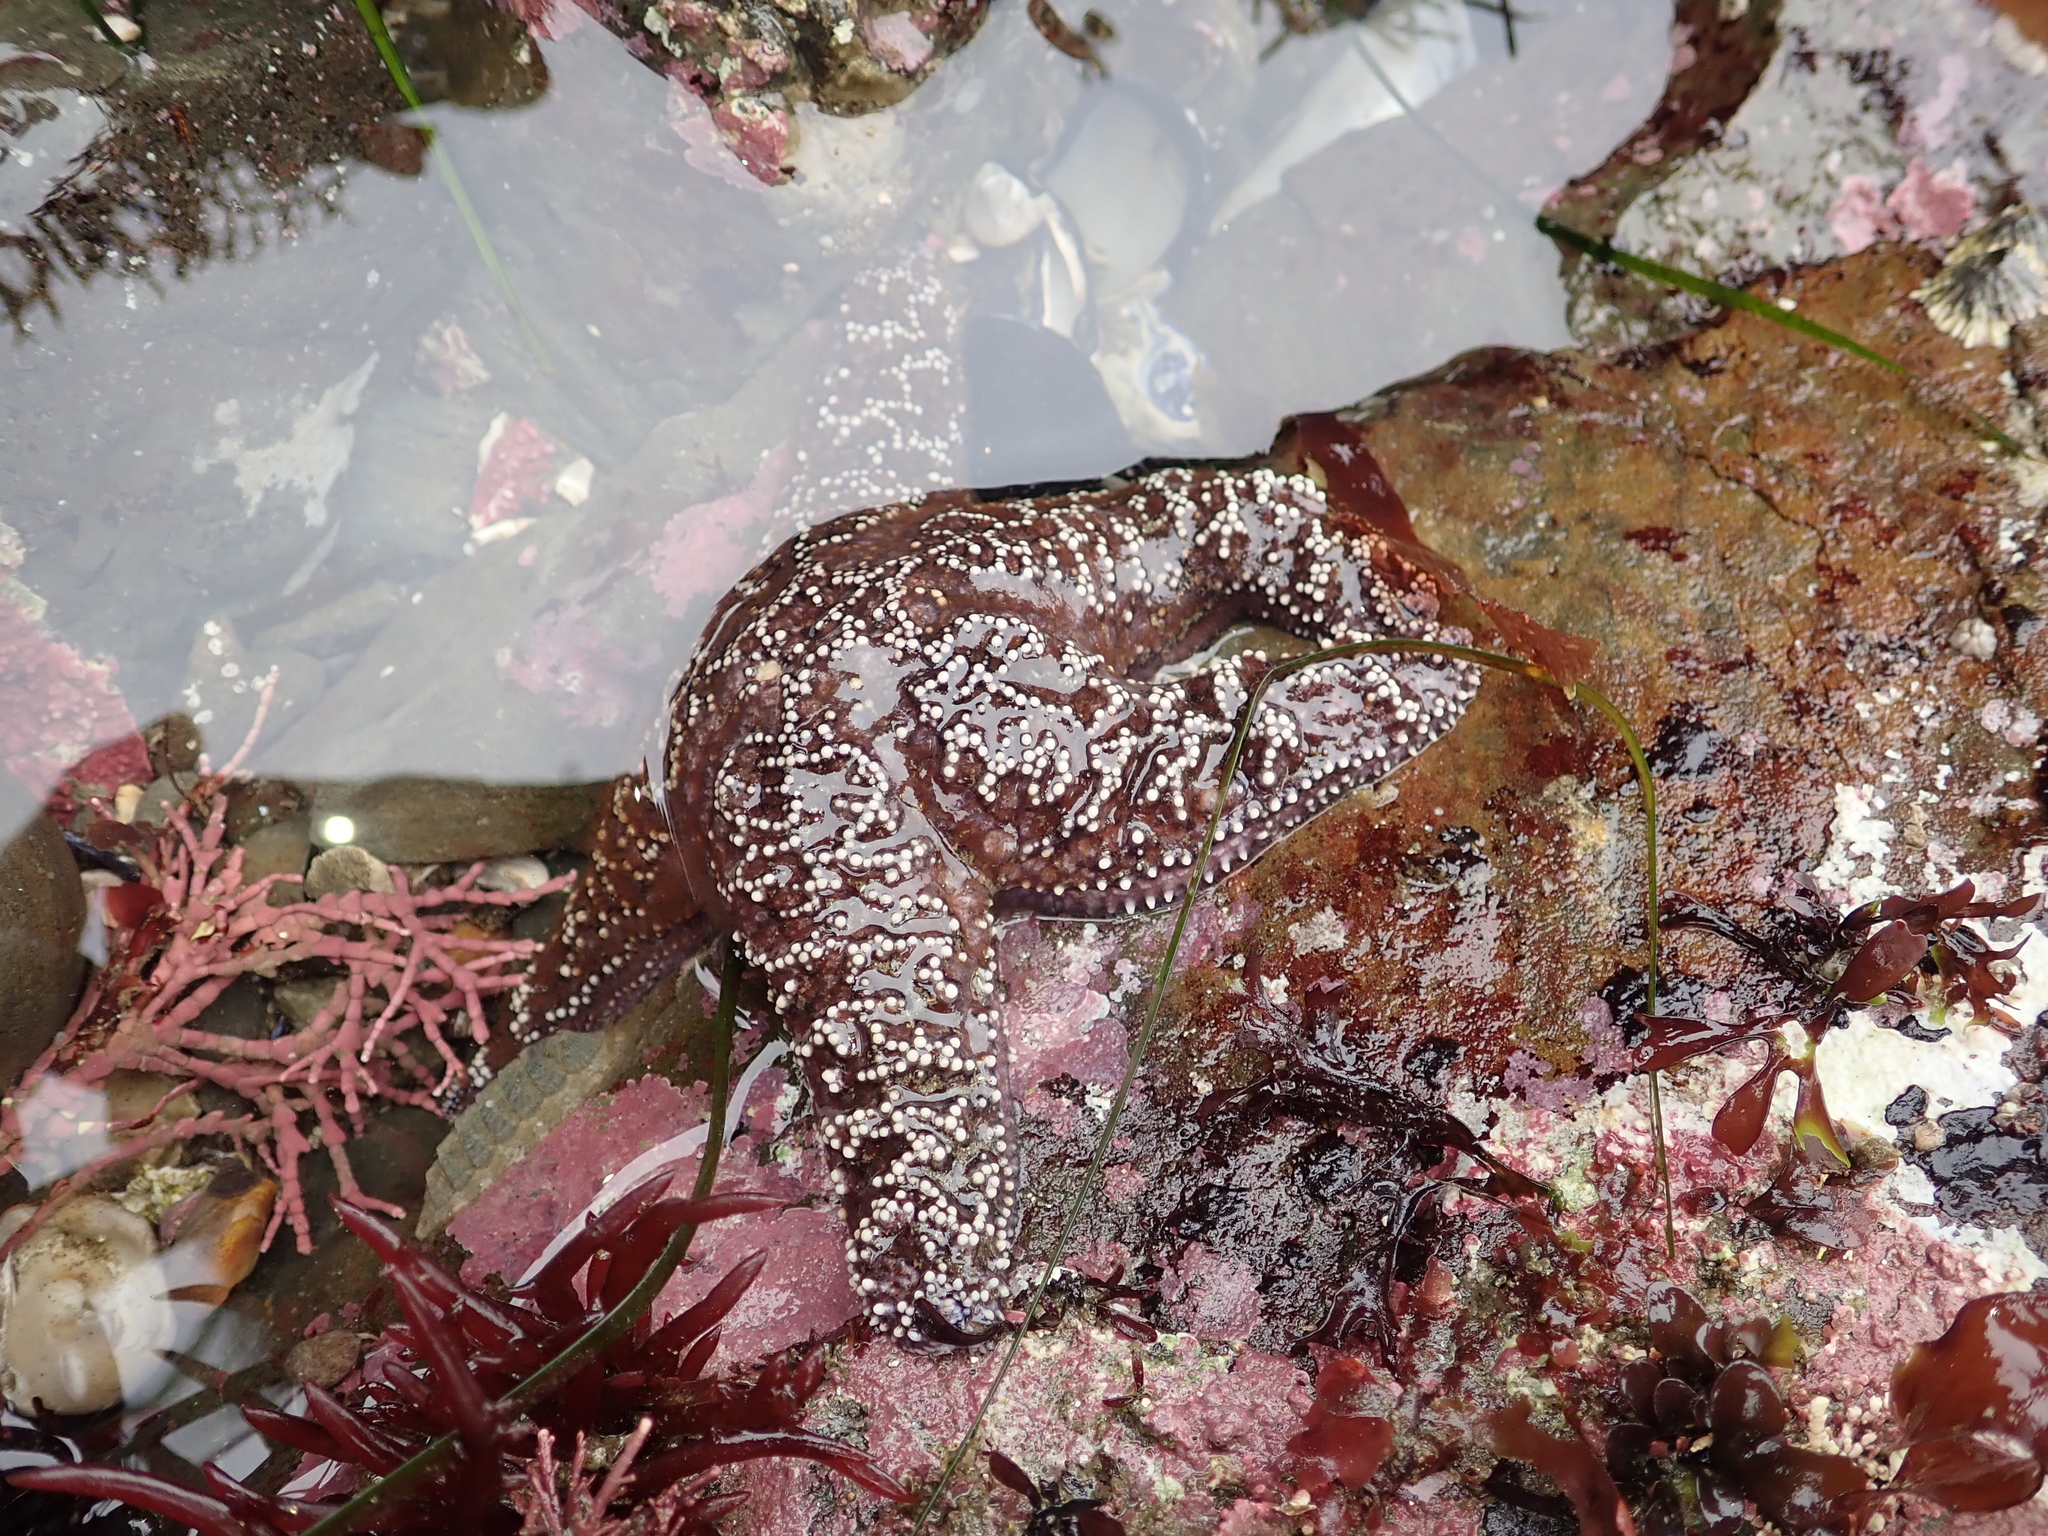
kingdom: Animalia
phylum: Echinodermata
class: Asteroidea
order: Forcipulatida
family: Asteriidae
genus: Pisaster
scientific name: Pisaster ochraceus
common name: Ochre stars
